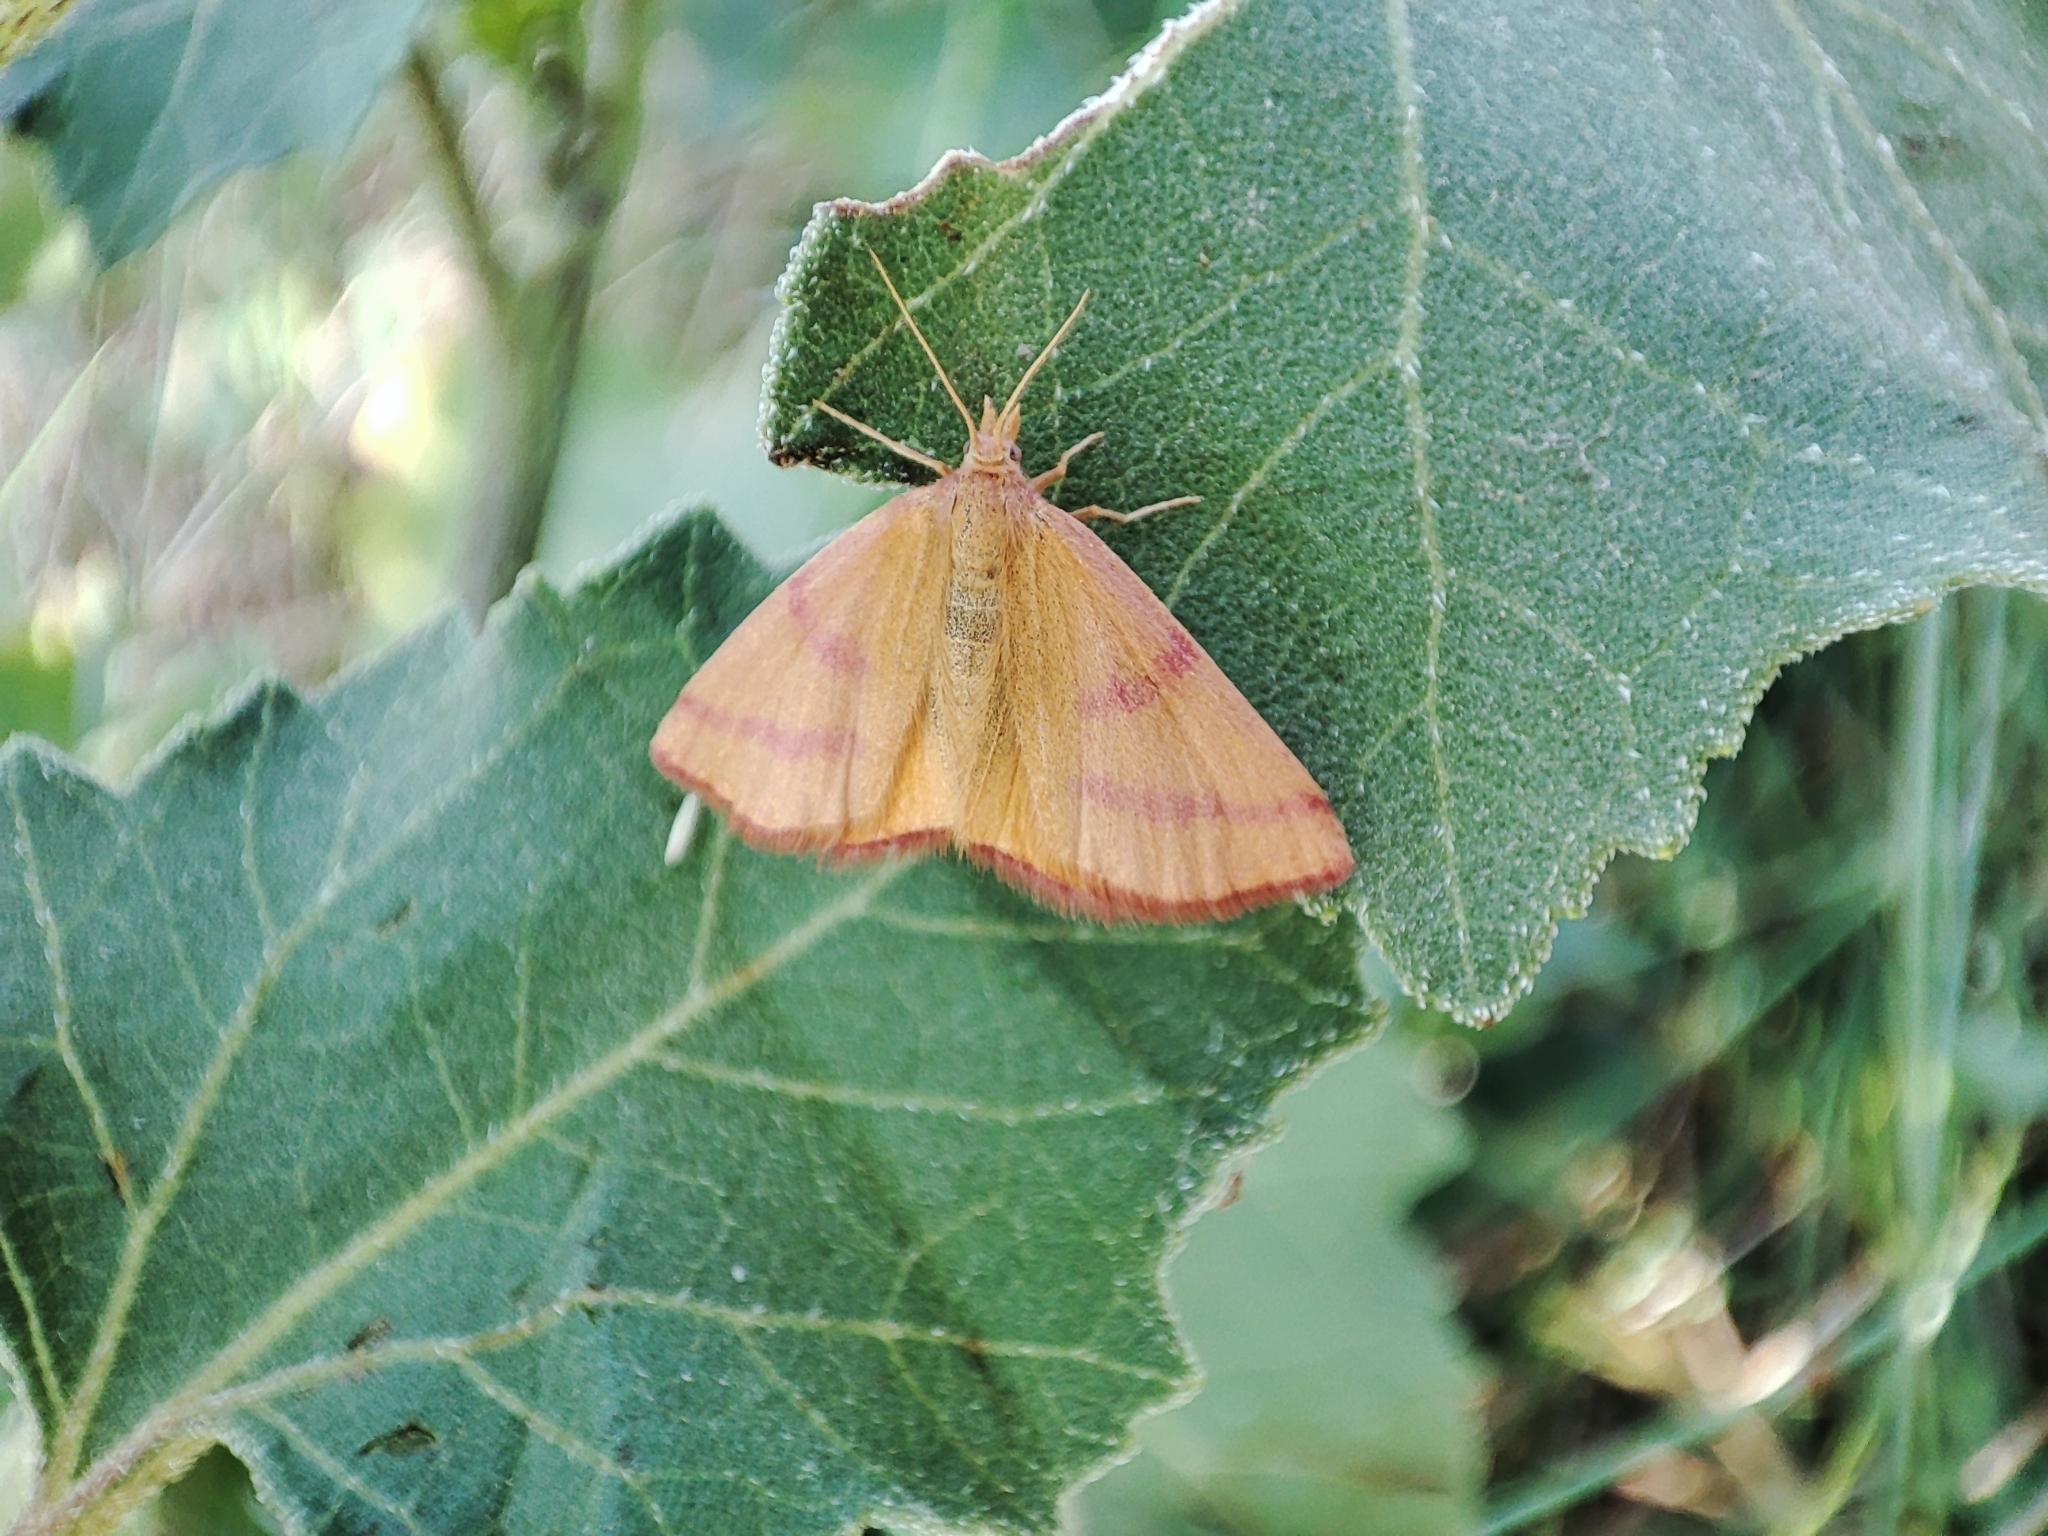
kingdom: Animalia
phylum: Arthropoda
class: Insecta
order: Lepidoptera
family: Geometridae
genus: Lythria
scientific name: Lythria purpuraria
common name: Purple-barred yellow
